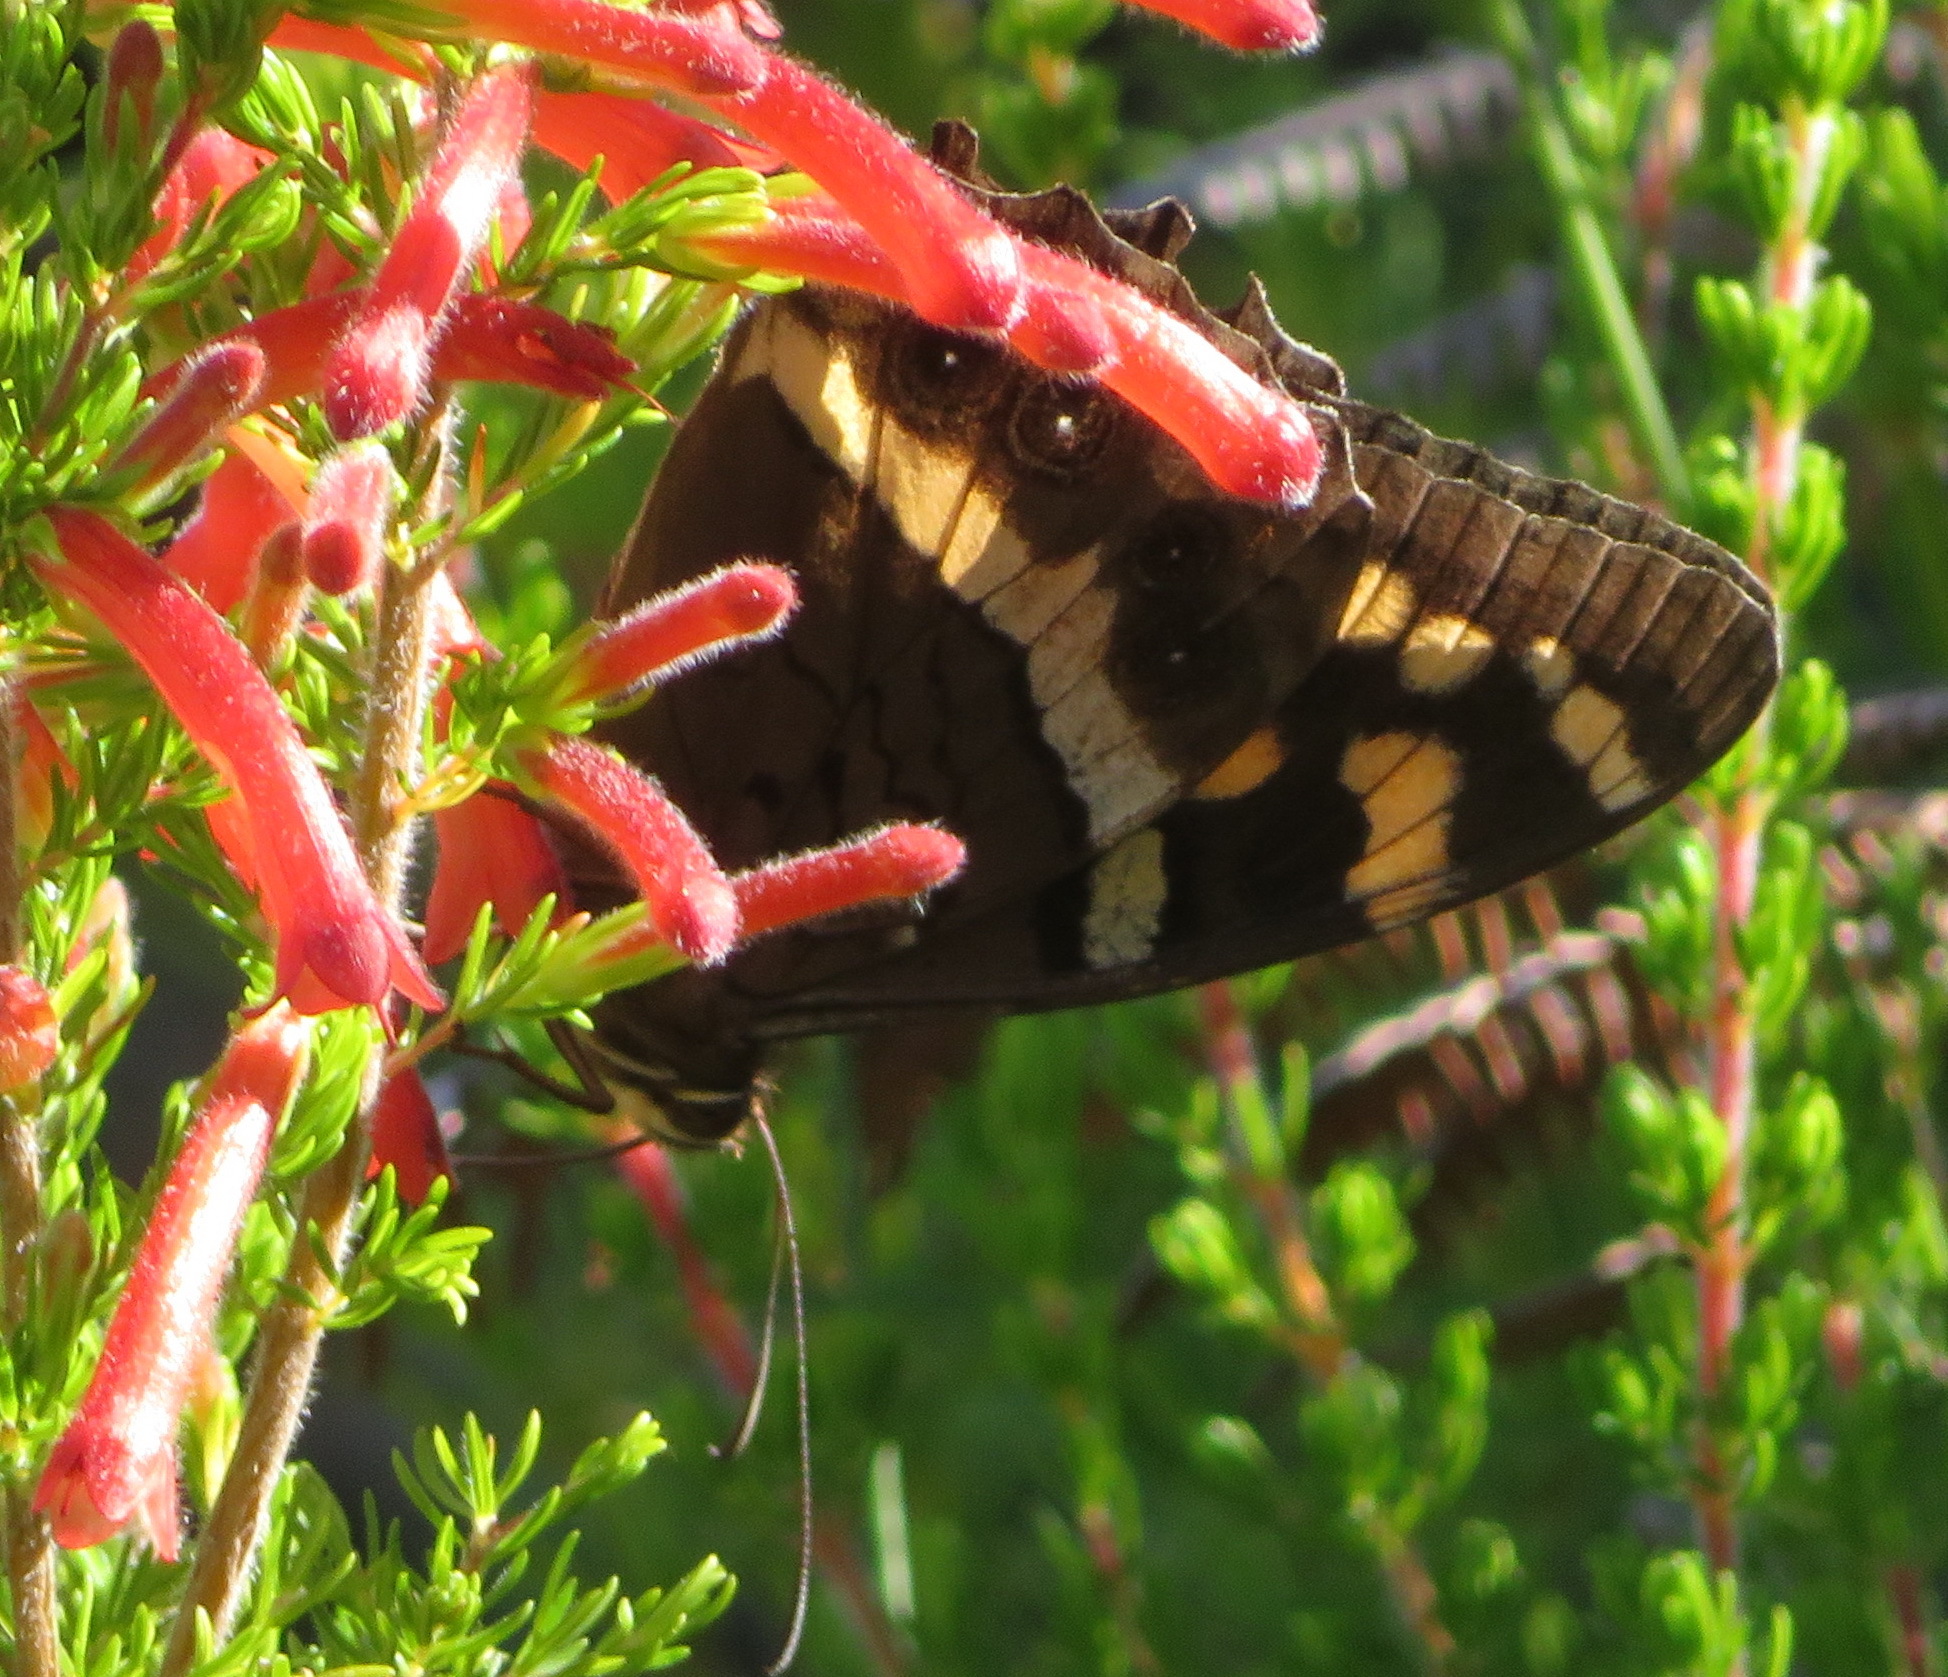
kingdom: Animalia
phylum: Arthropoda
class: Insecta
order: Lepidoptera
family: Nymphalidae
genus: Meneris
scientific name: Meneris Aeropetes tulbaghia
